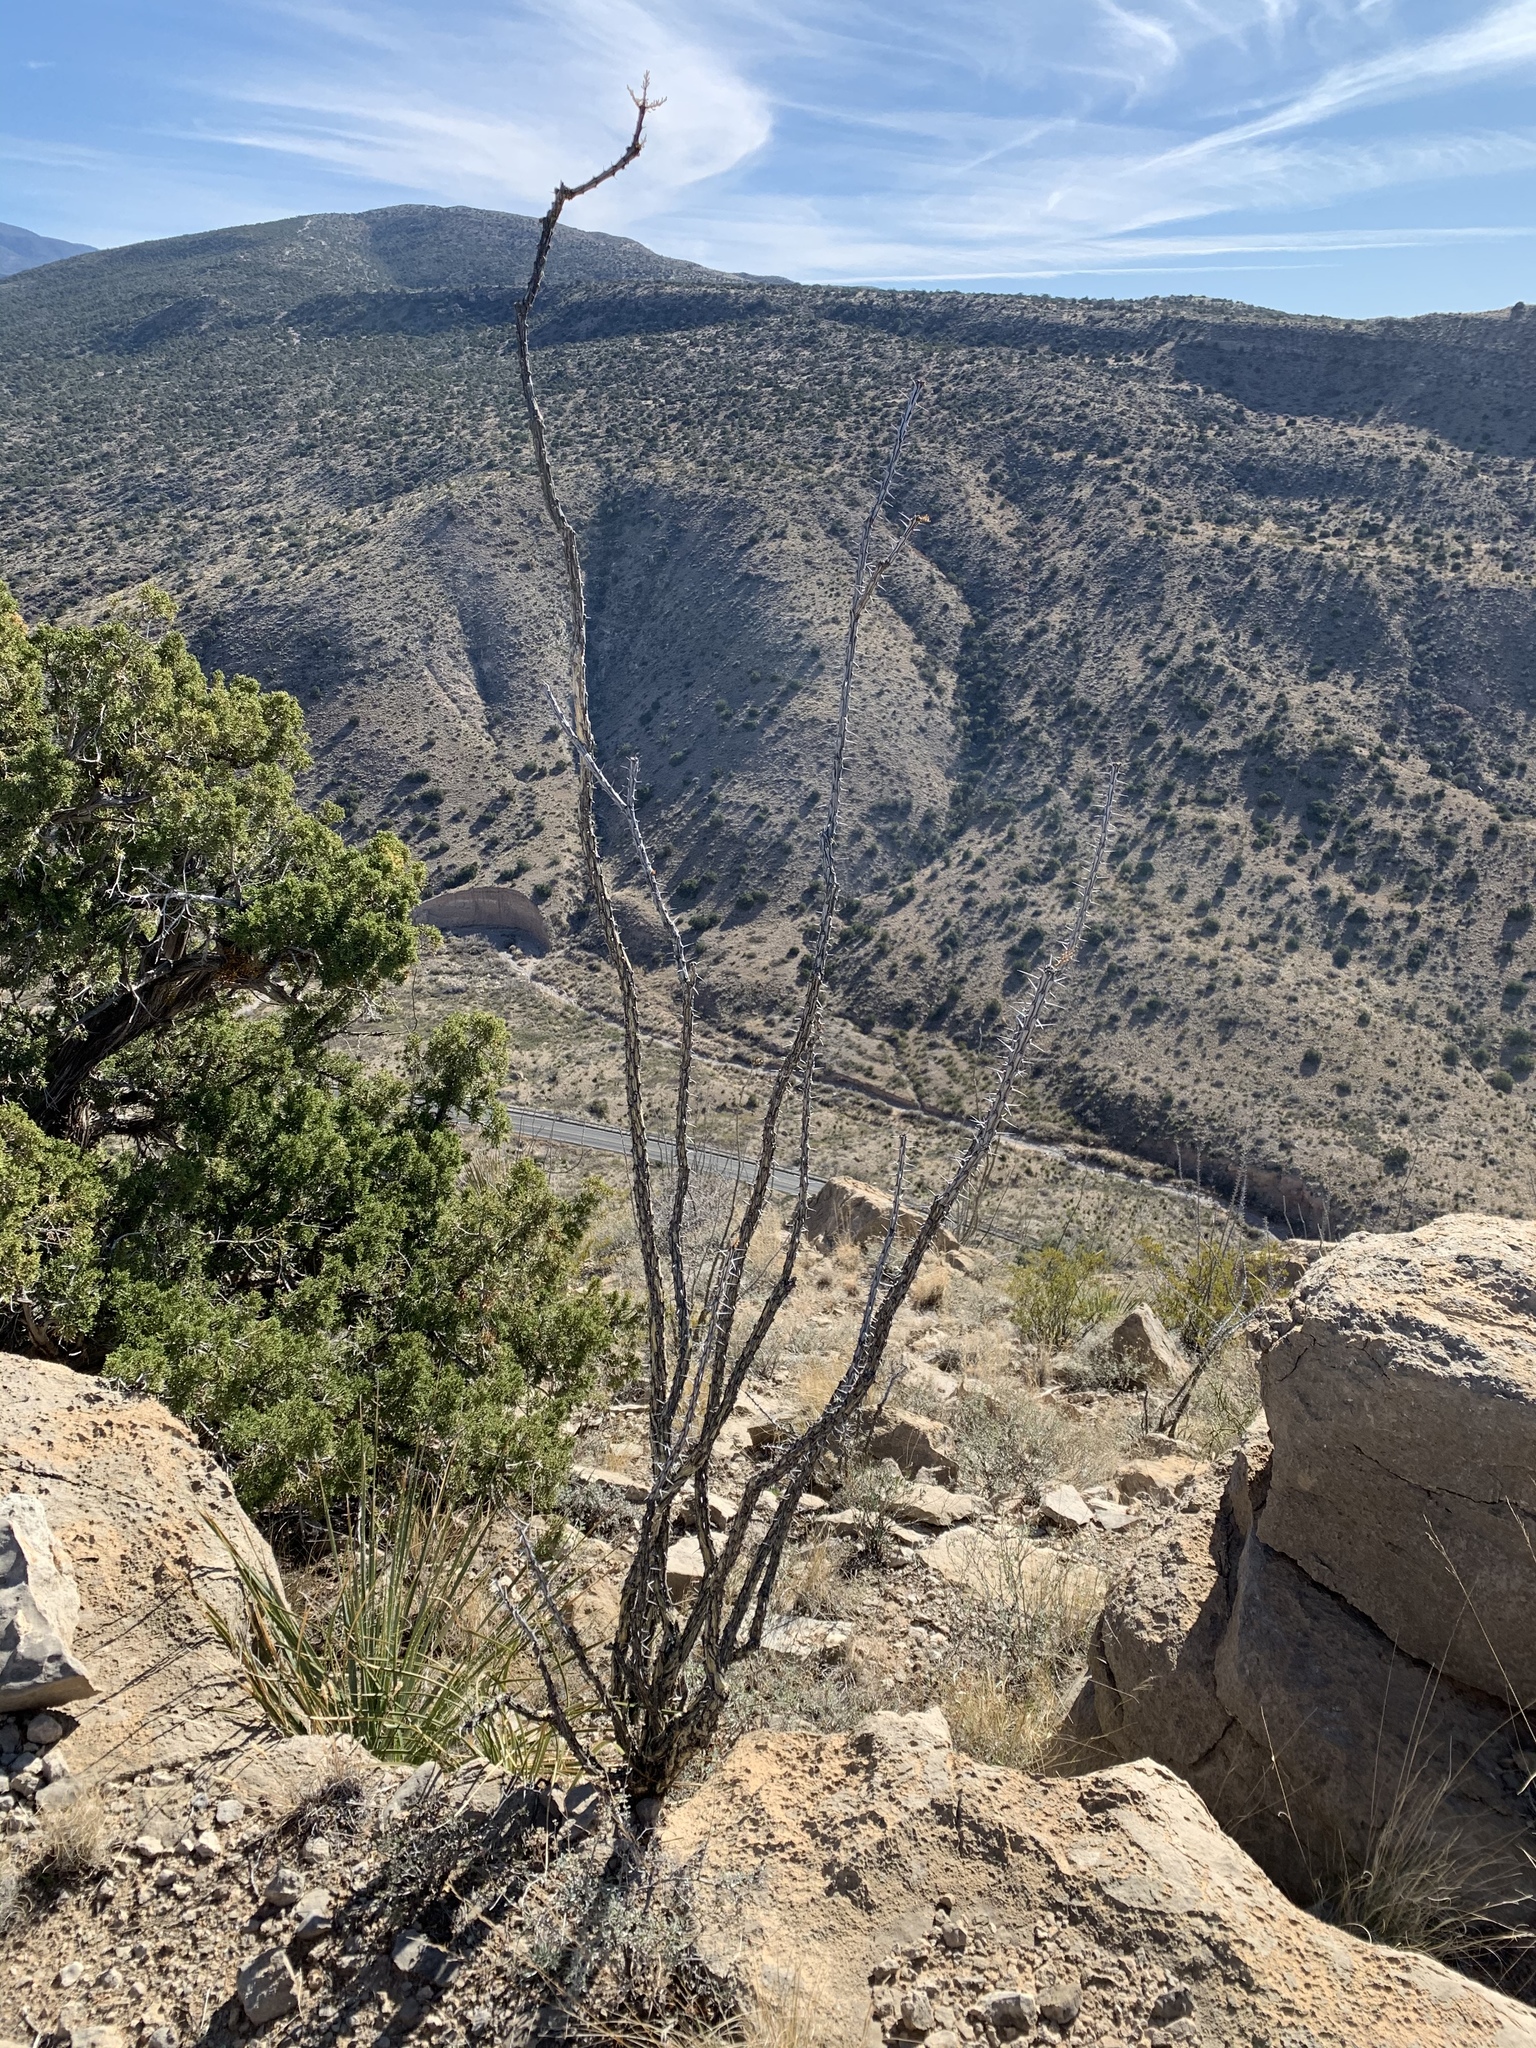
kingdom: Plantae
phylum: Tracheophyta
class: Magnoliopsida
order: Ericales
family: Fouquieriaceae
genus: Fouquieria
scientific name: Fouquieria splendens
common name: Vine-cactus
